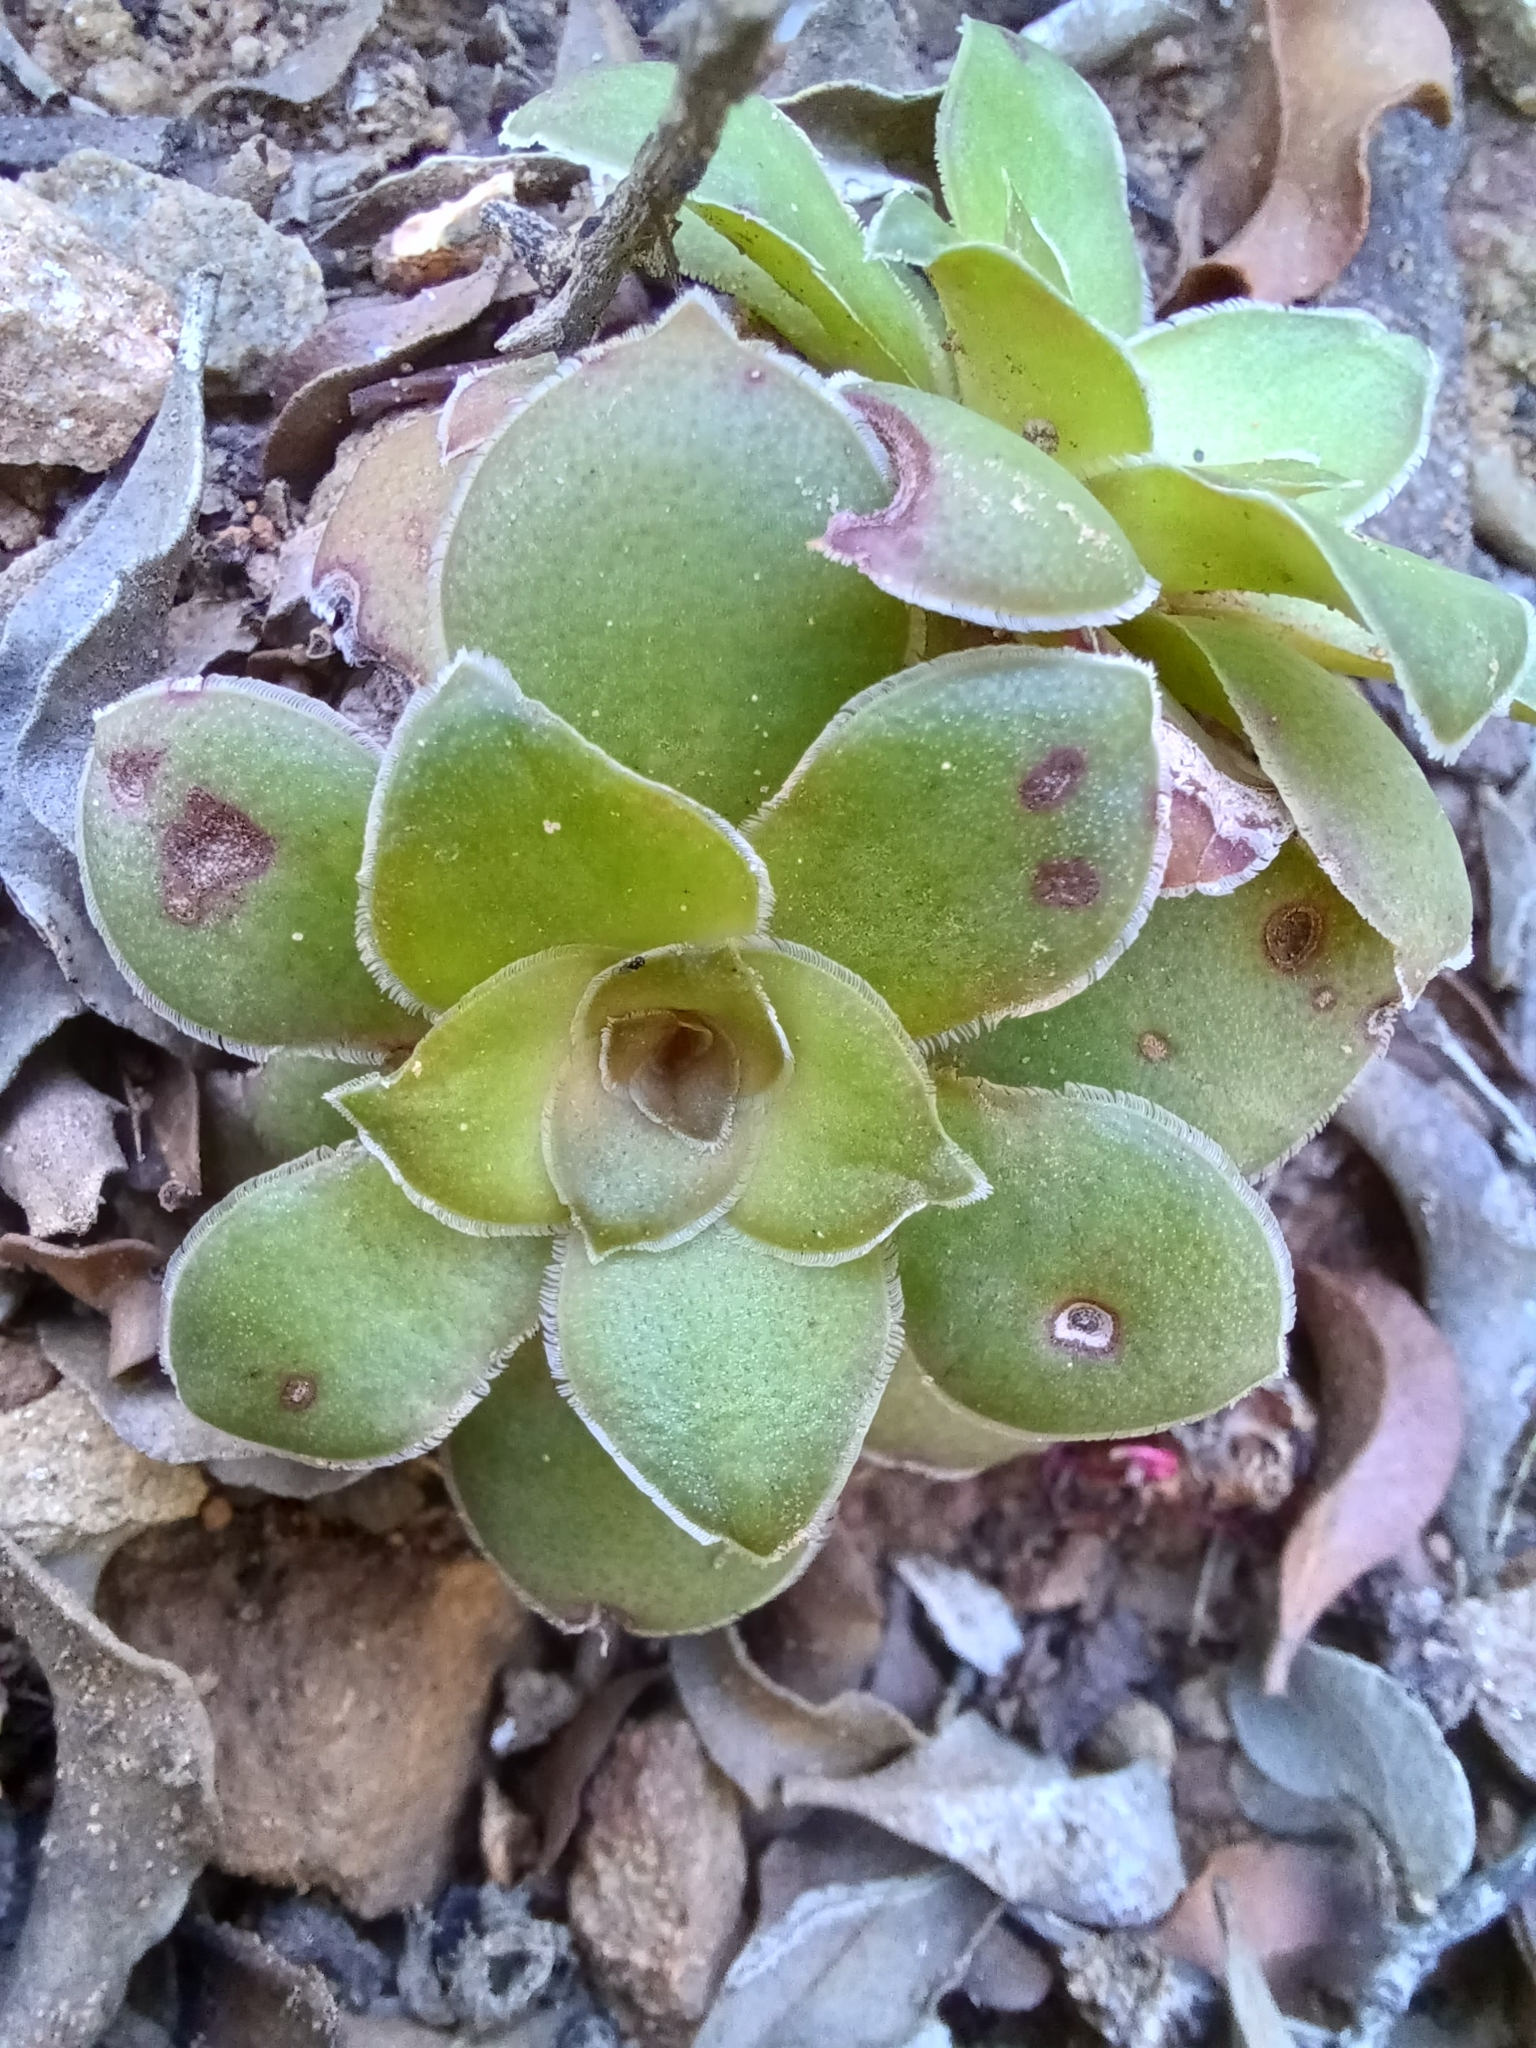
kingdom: Plantae
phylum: Tracheophyta
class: Magnoliopsida
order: Saxifragales
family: Crassulaceae
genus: Crassula
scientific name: Crassula orbicularis
